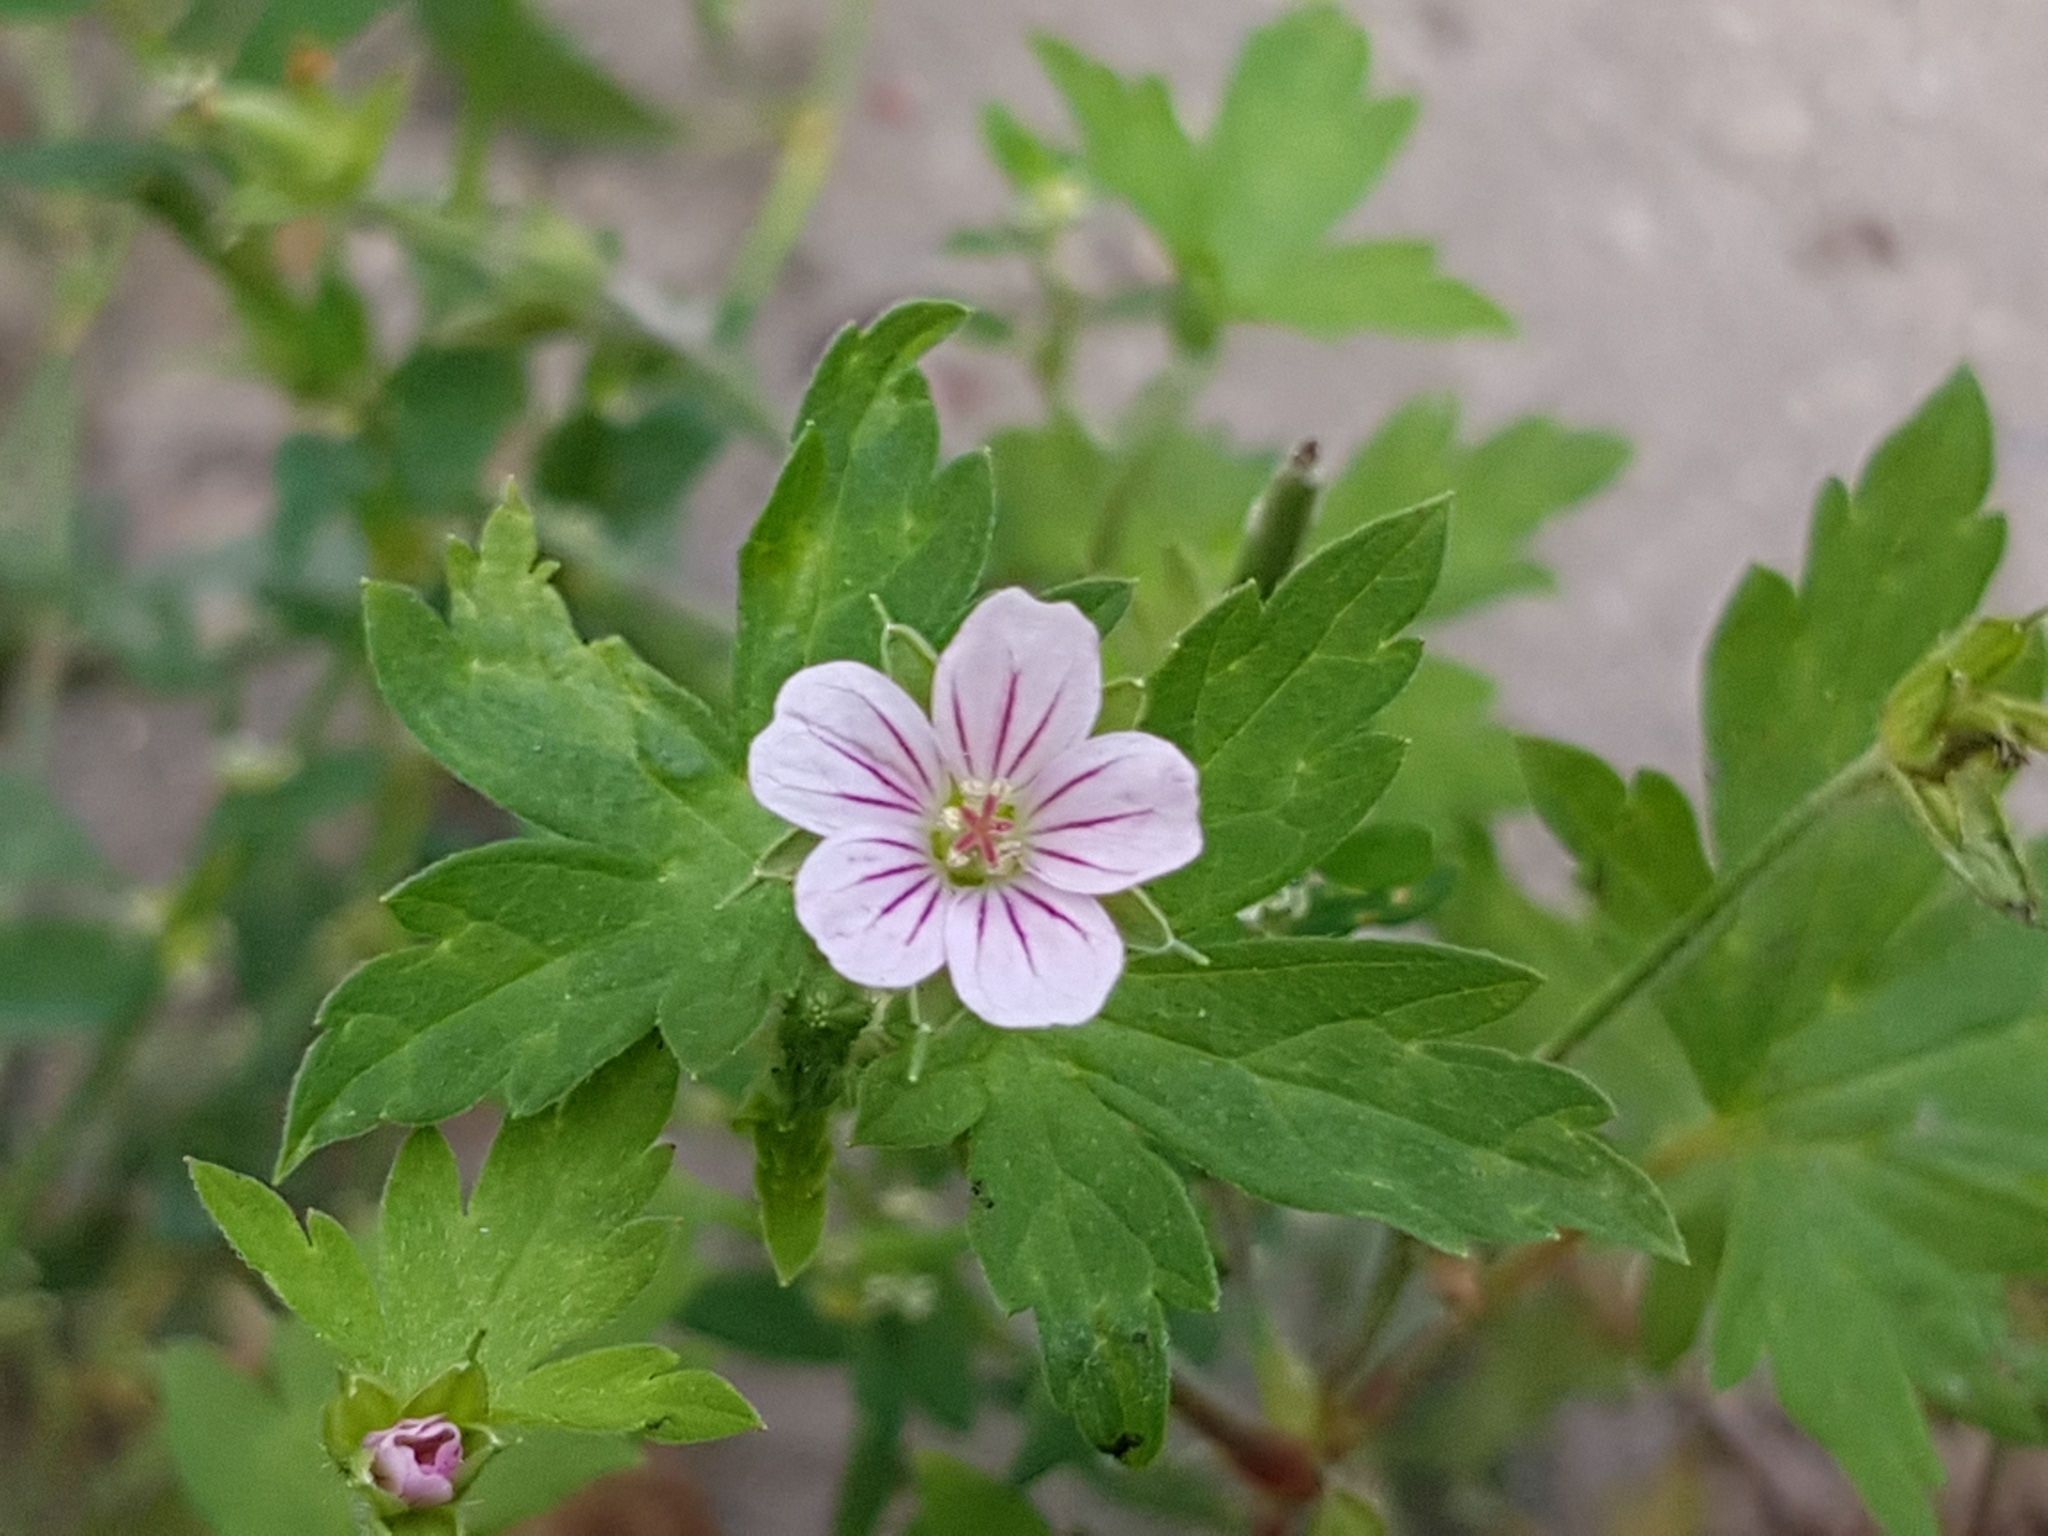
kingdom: Plantae
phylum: Tracheophyta
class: Magnoliopsida
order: Geraniales
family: Geraniaceae
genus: Geranium
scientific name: Geranium sibiricum
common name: Siberian crane's-bill
